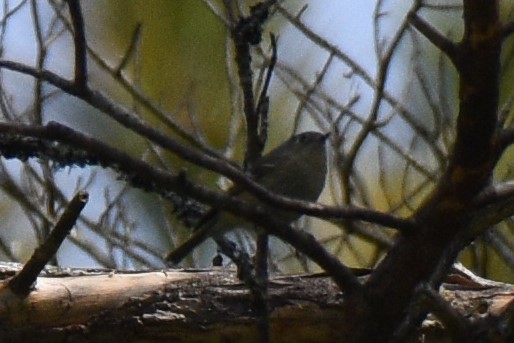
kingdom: Animalia
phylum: Chordata
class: Aves
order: Passeriformes
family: Regulidae
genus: Regulus
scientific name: Regulus calendula
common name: Ruby-crowned kinglet
